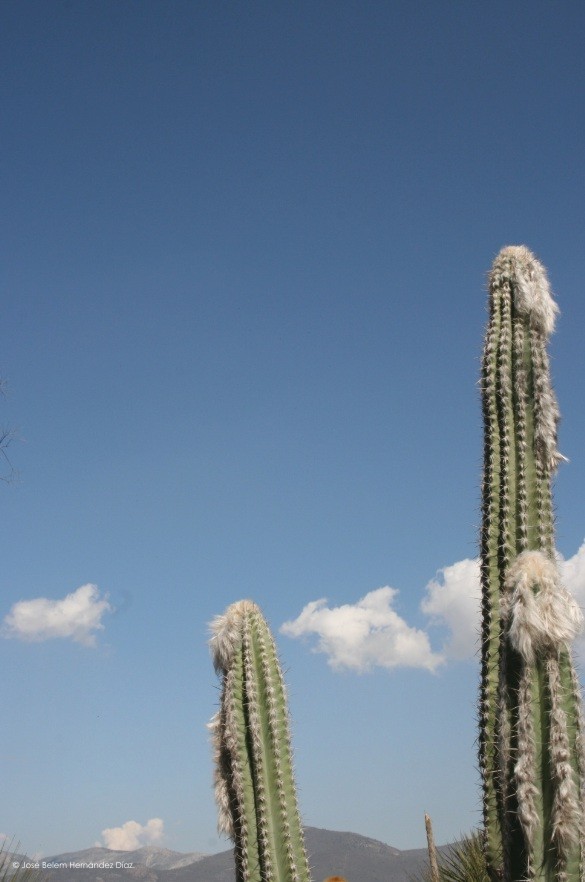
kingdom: Plantae
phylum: Tracheophyta
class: Magnoliopsida
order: Caryophyllales
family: Cactaceae
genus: Pilosocereus
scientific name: Pilosocereus leucocephalus
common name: Old man cactus
